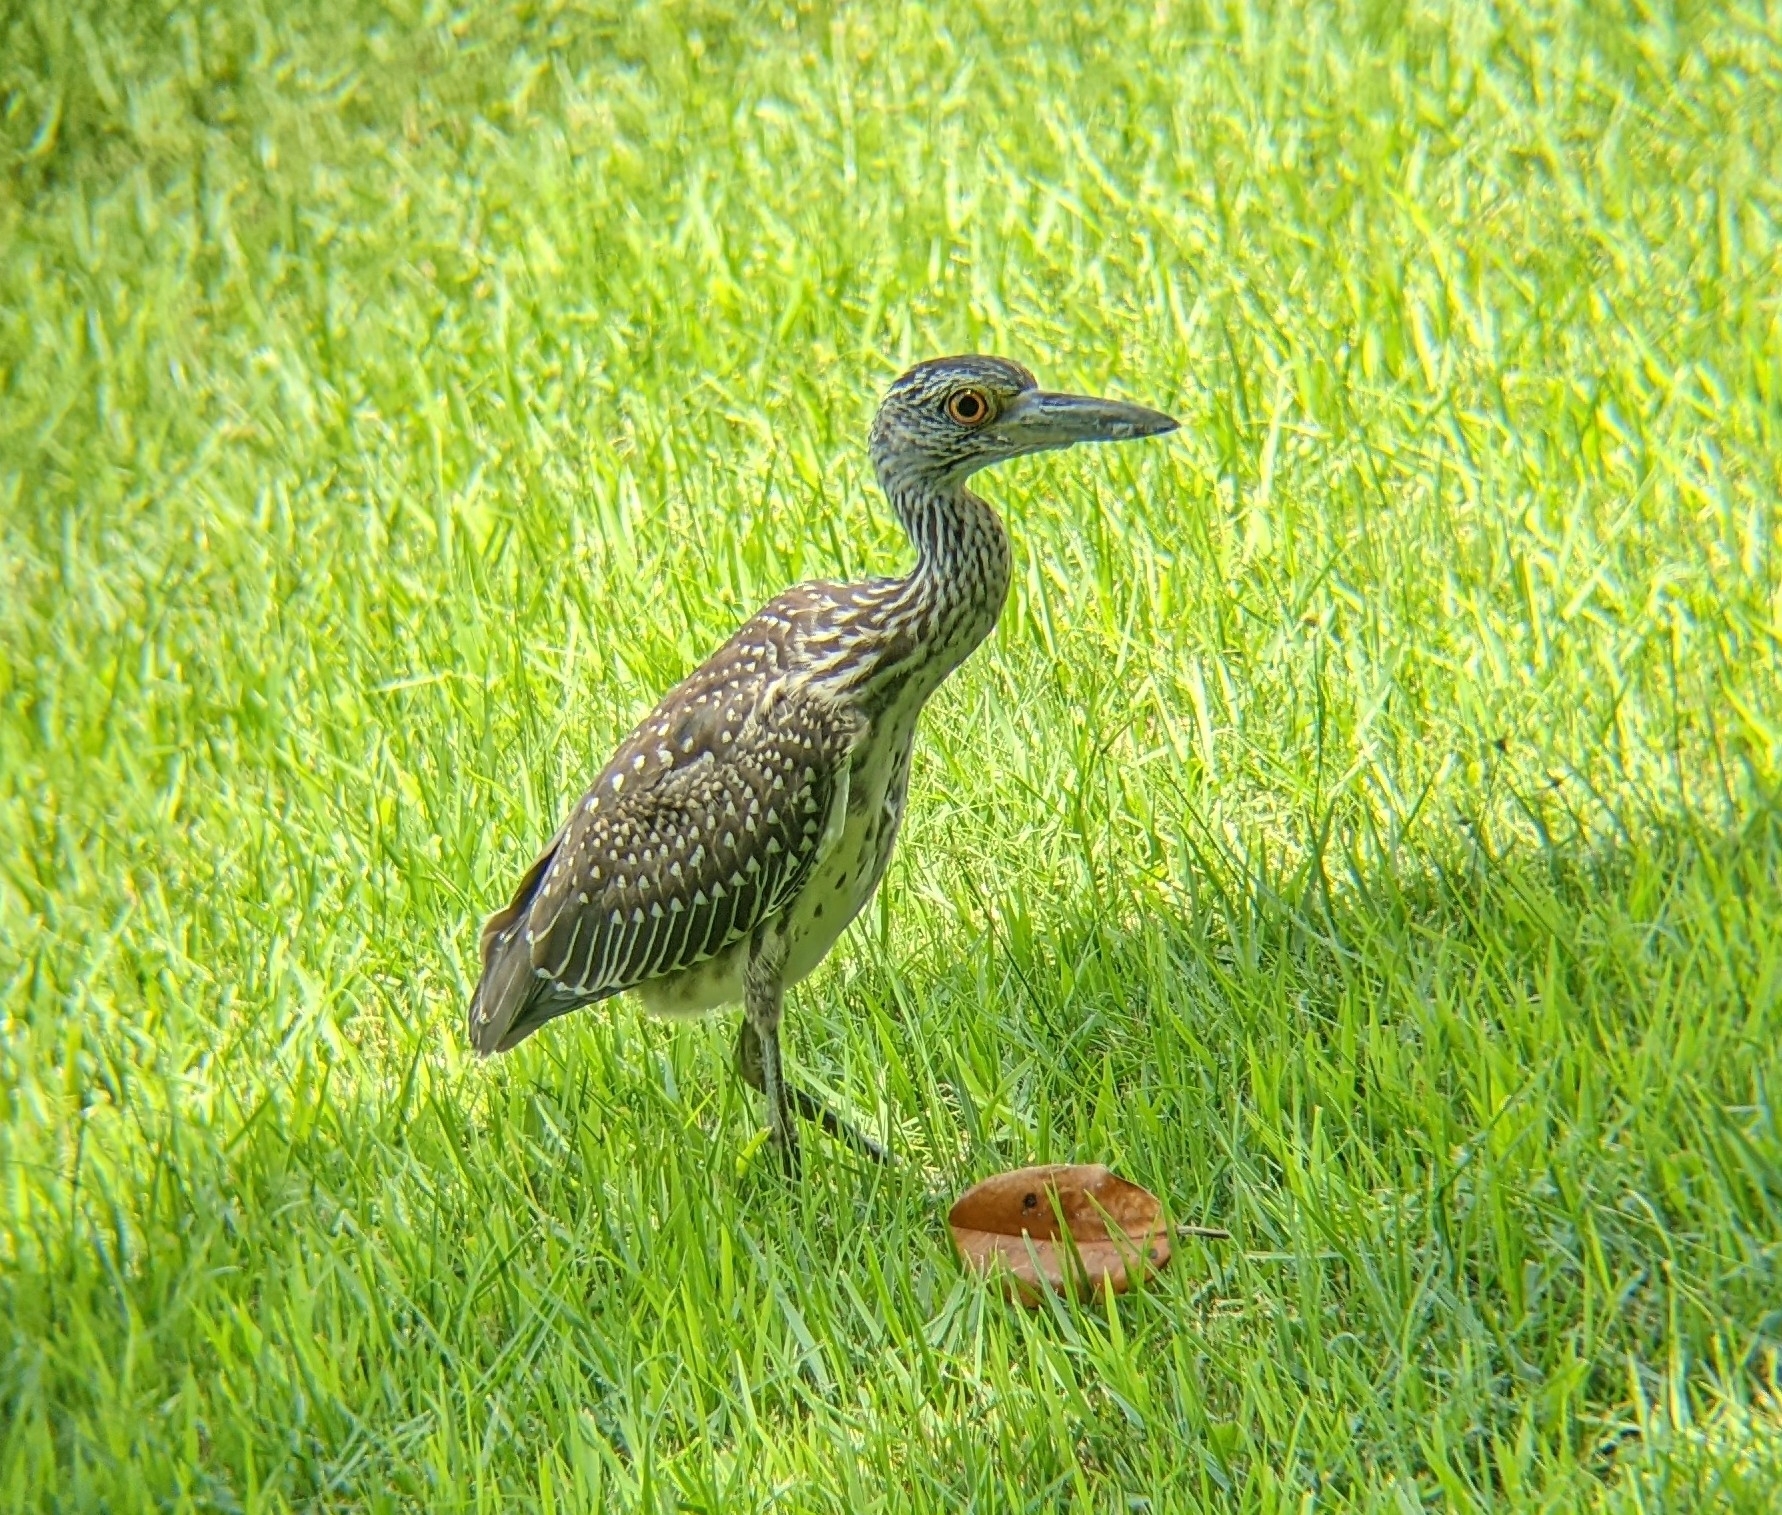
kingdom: Animalia
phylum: Chordata
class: Aves
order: Pelecaniformes
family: Ardeidae
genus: Nyctanassa
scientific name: Nyctanassa violacea
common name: Yellow-crowned night heron
